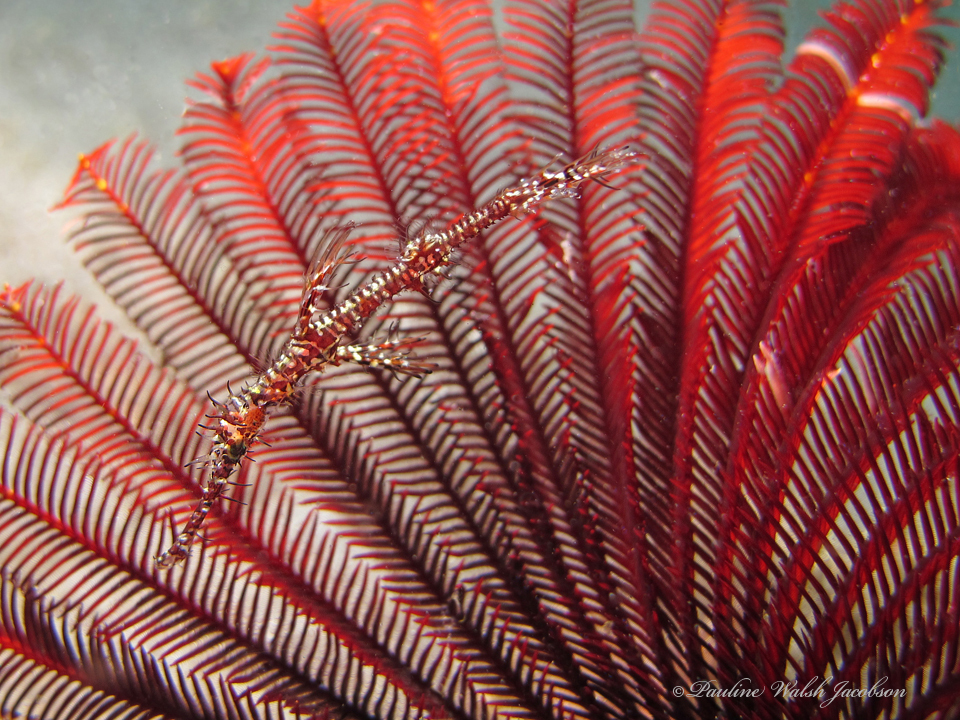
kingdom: Animalia
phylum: Chordata
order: Syngnathiformes
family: Solenostomidae
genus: Solenostomus
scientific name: Solenostomus paradoxus
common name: Ghost pipefish
